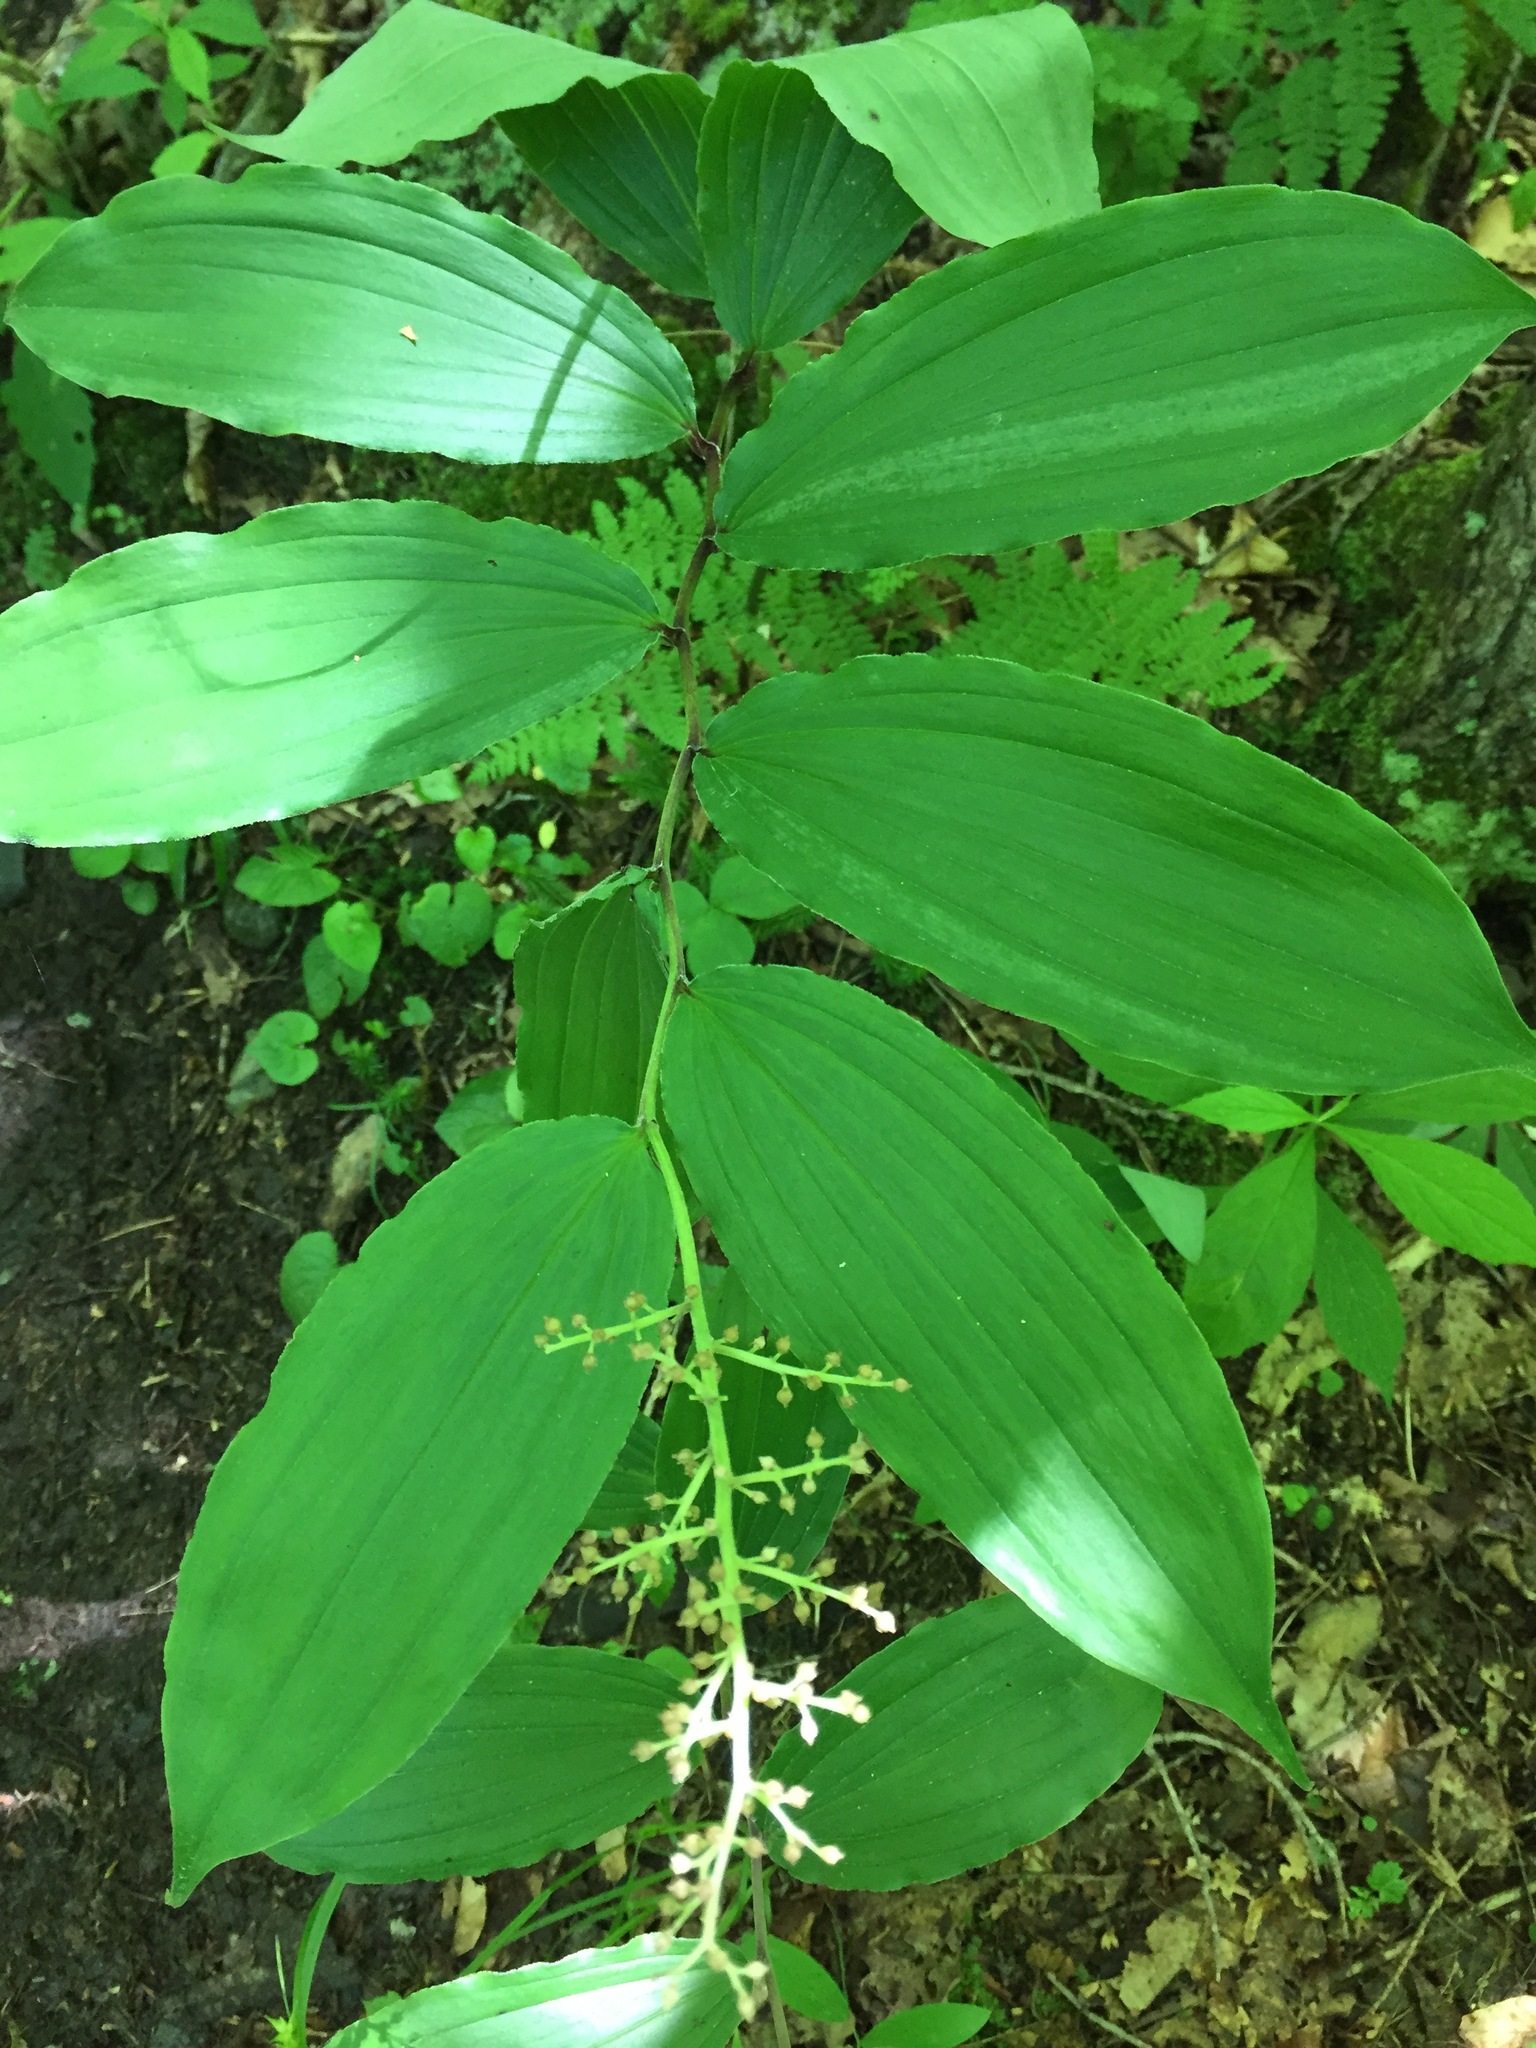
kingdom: Plantae
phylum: Tracheophyta
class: Liliopsida
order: Asparagales
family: Asparagaceae
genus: Maianthemum
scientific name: Maianthemum racemosum
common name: False spikenard
